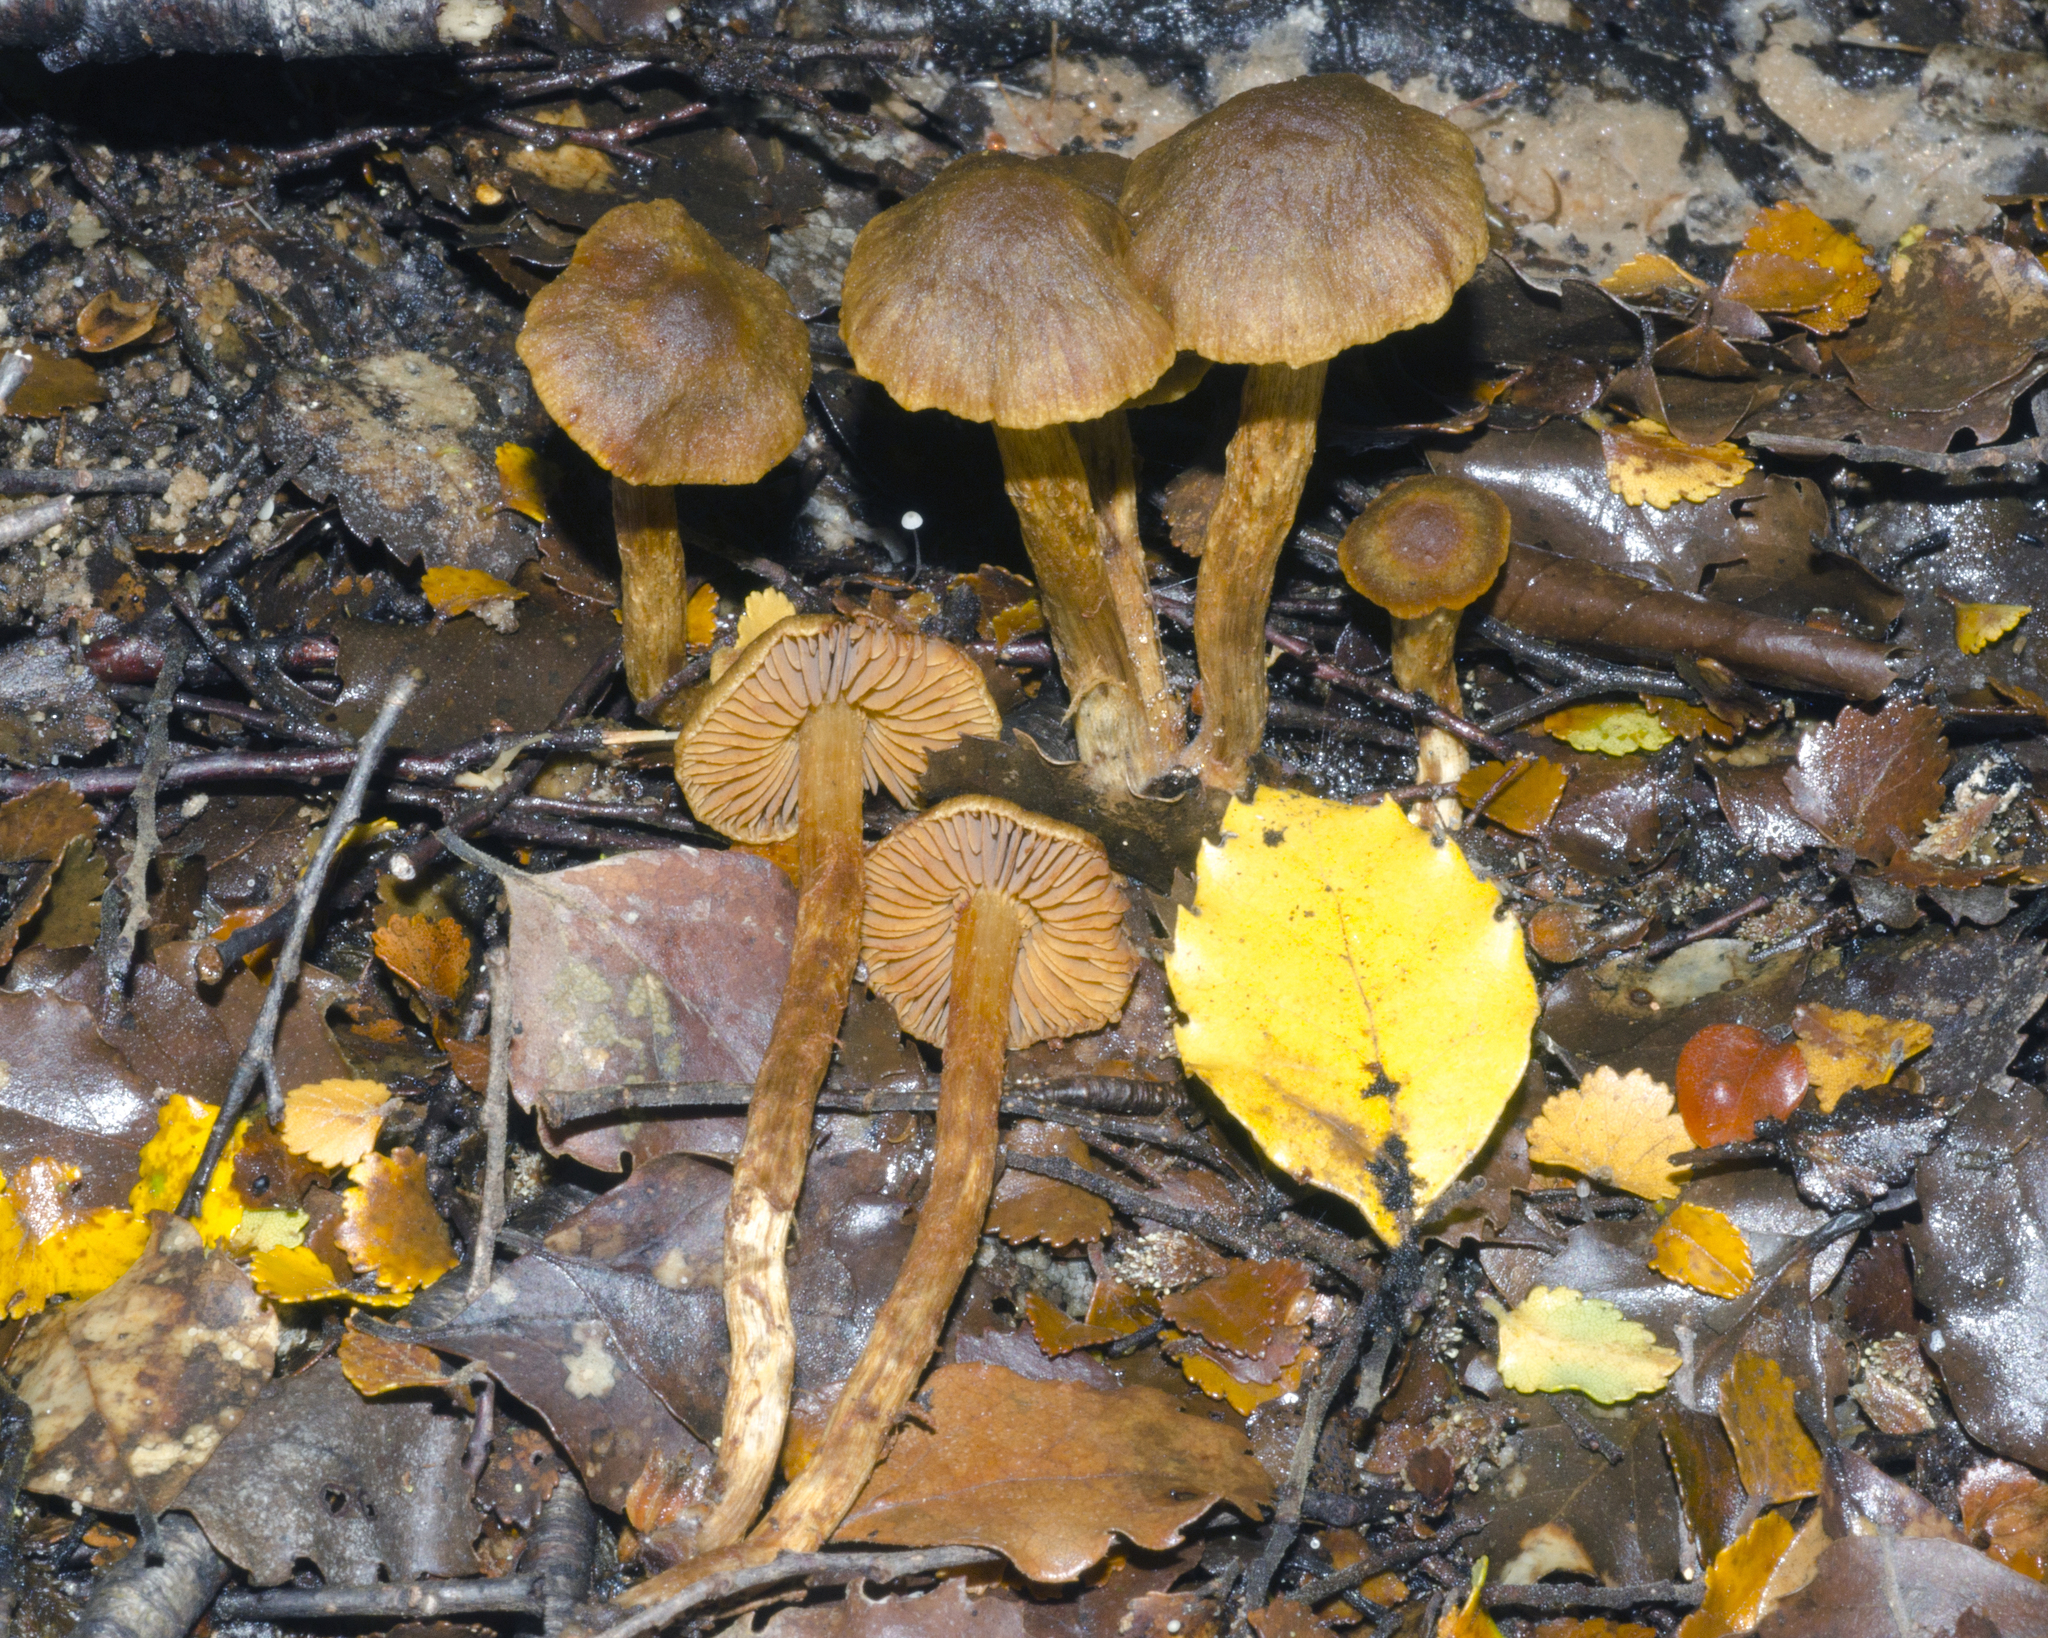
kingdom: Fungi
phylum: Basidiomycota
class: Agaricomycetes
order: Agaricales
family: Cortinariaceae
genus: Aureonarius
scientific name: Aureonarius caryotoides
